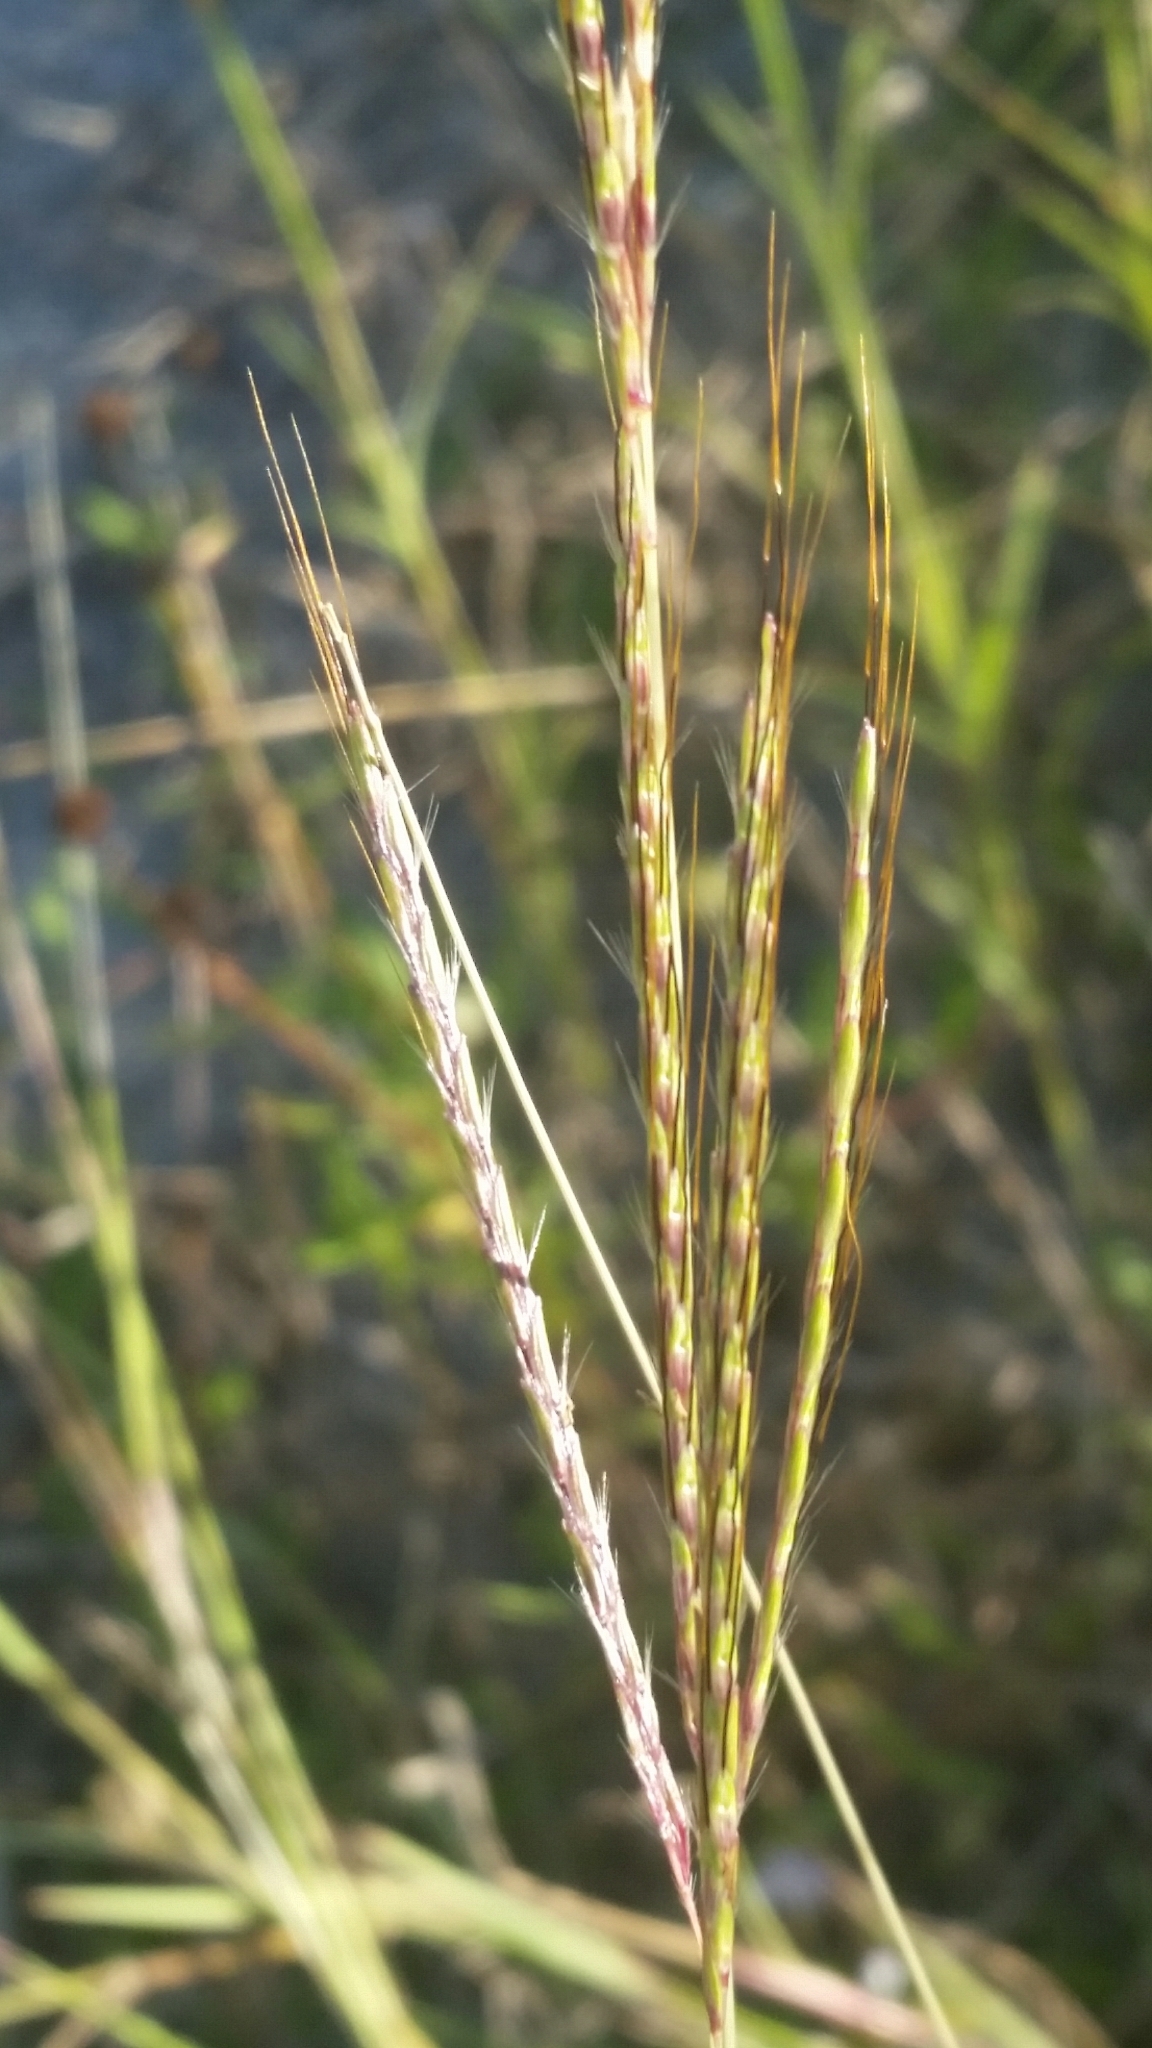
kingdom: Plantae
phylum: Tracheophyta
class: Liliopsida
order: Poales
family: Poaceae
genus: Bothriochloa
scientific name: Bothriochloa pertusa
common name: Pitted beardgrass
